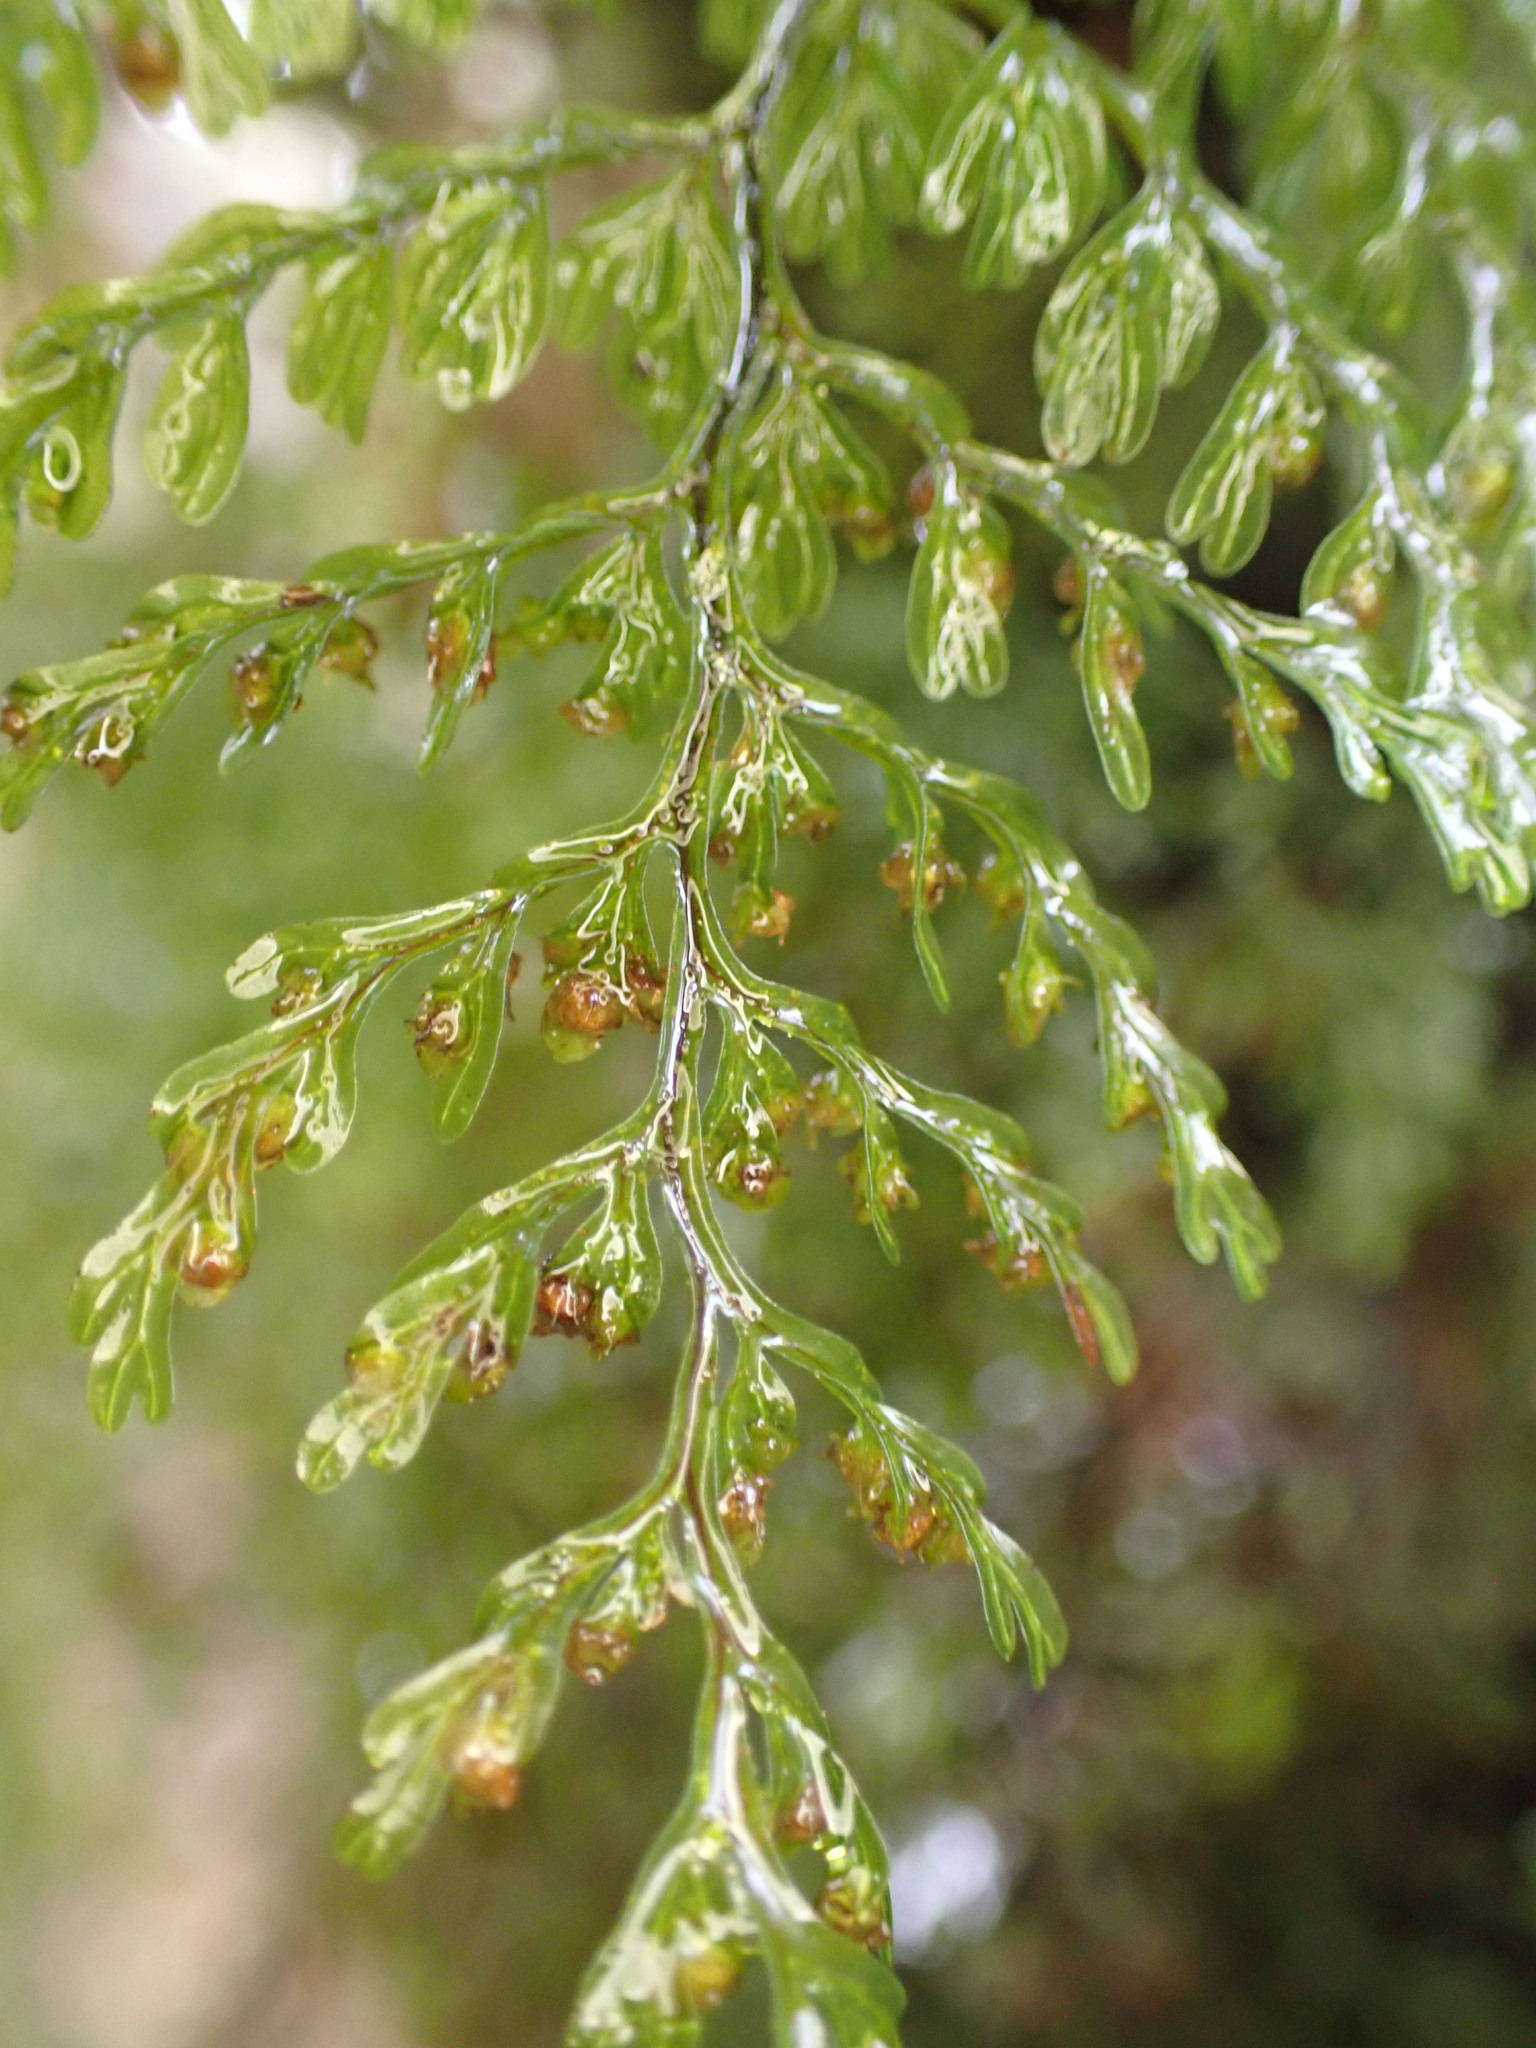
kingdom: Plantae
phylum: Tracheophyta
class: Polypodiopsida
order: Hymenophyllales
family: Hymenophyllaceae
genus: Hymenophyllum
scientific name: Hymenophyllum sanguinolentum
